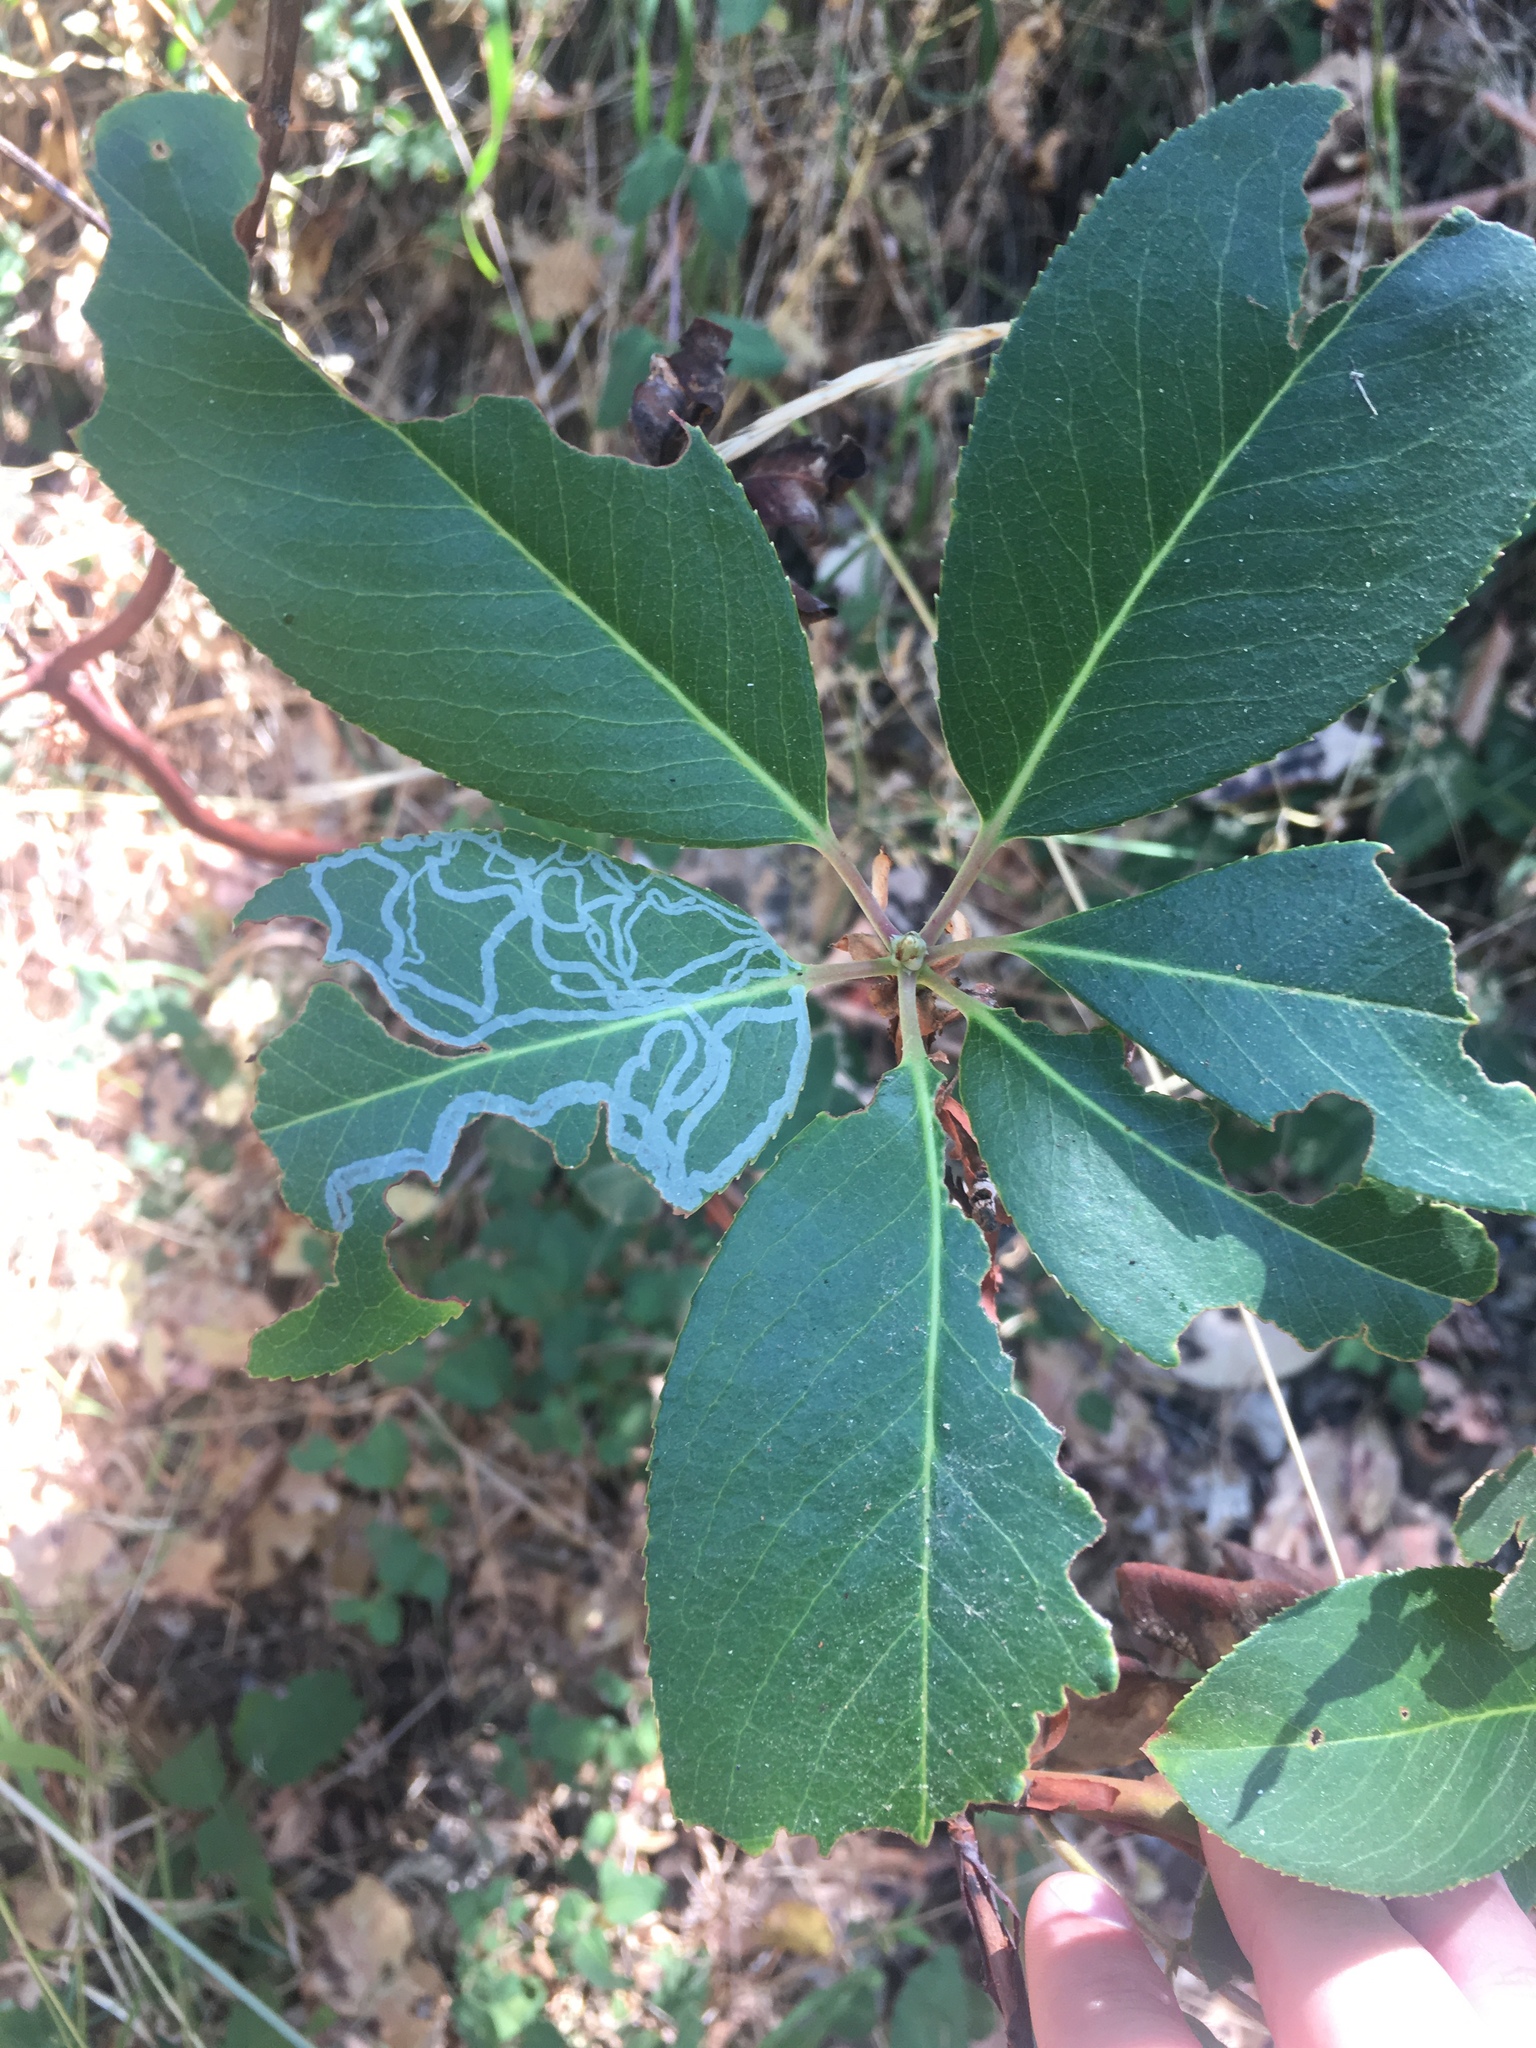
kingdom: Animalia
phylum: Arthropoda
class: Insecta
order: Lepidoptera
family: Gracillariidae
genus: Marmara
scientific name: Marmara arbutiella
